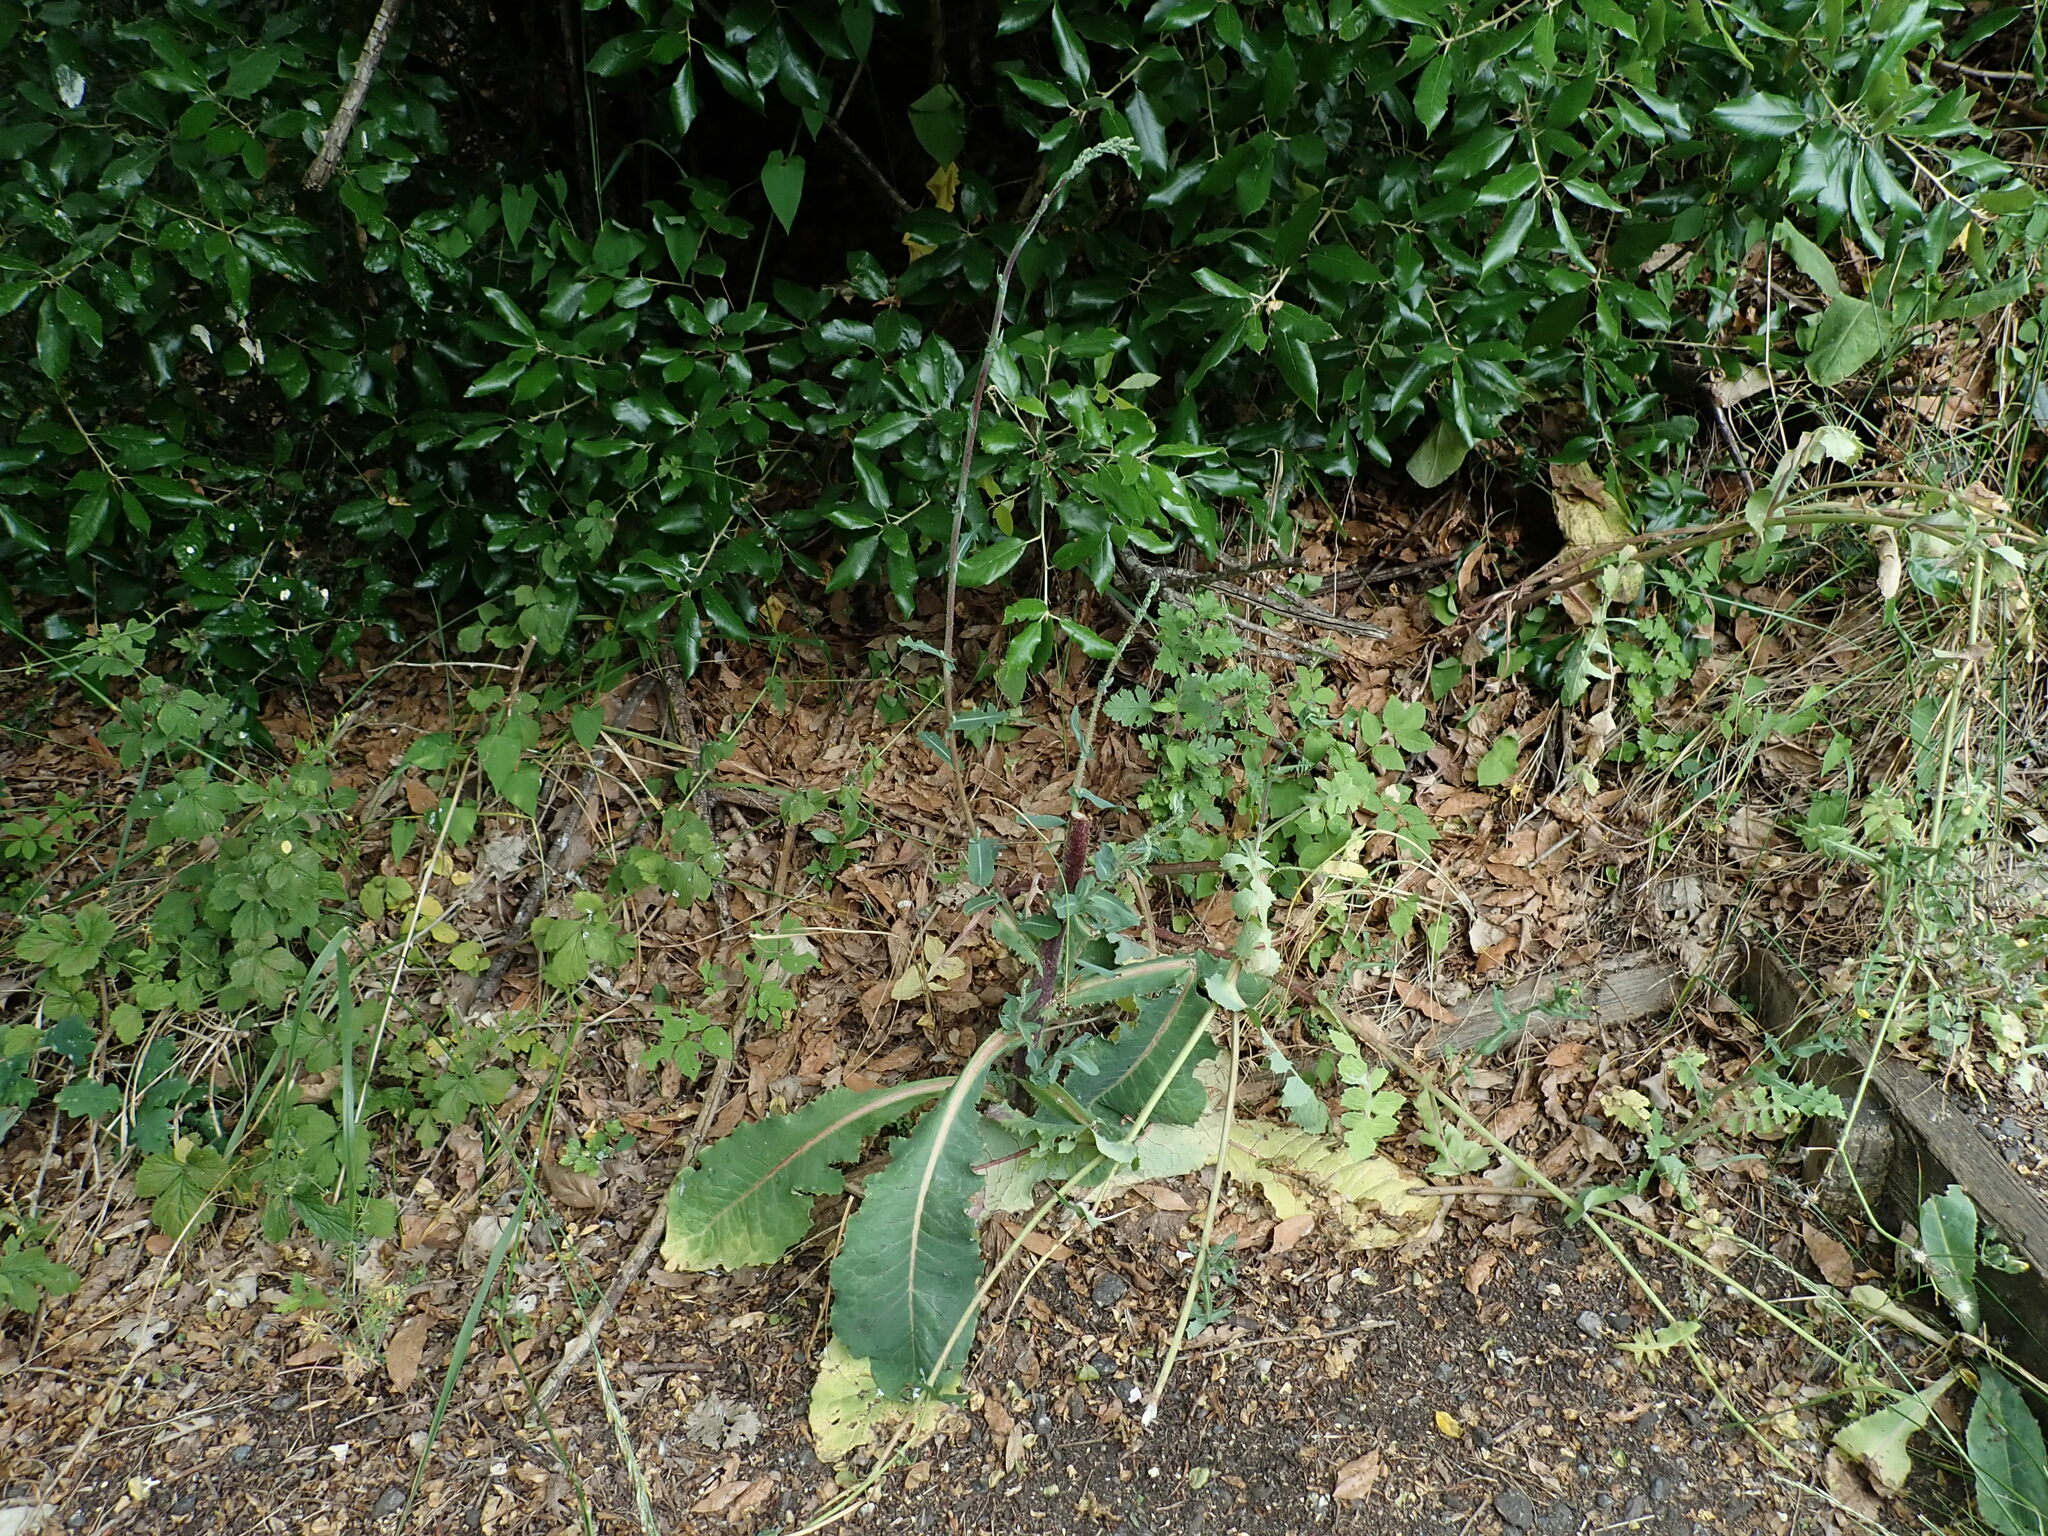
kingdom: Plantae
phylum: Tracheophyta
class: Magnoliopsida
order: Asterales
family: Asteraceae
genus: Lactuca
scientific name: Lactuca virosa
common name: Great lettuce
